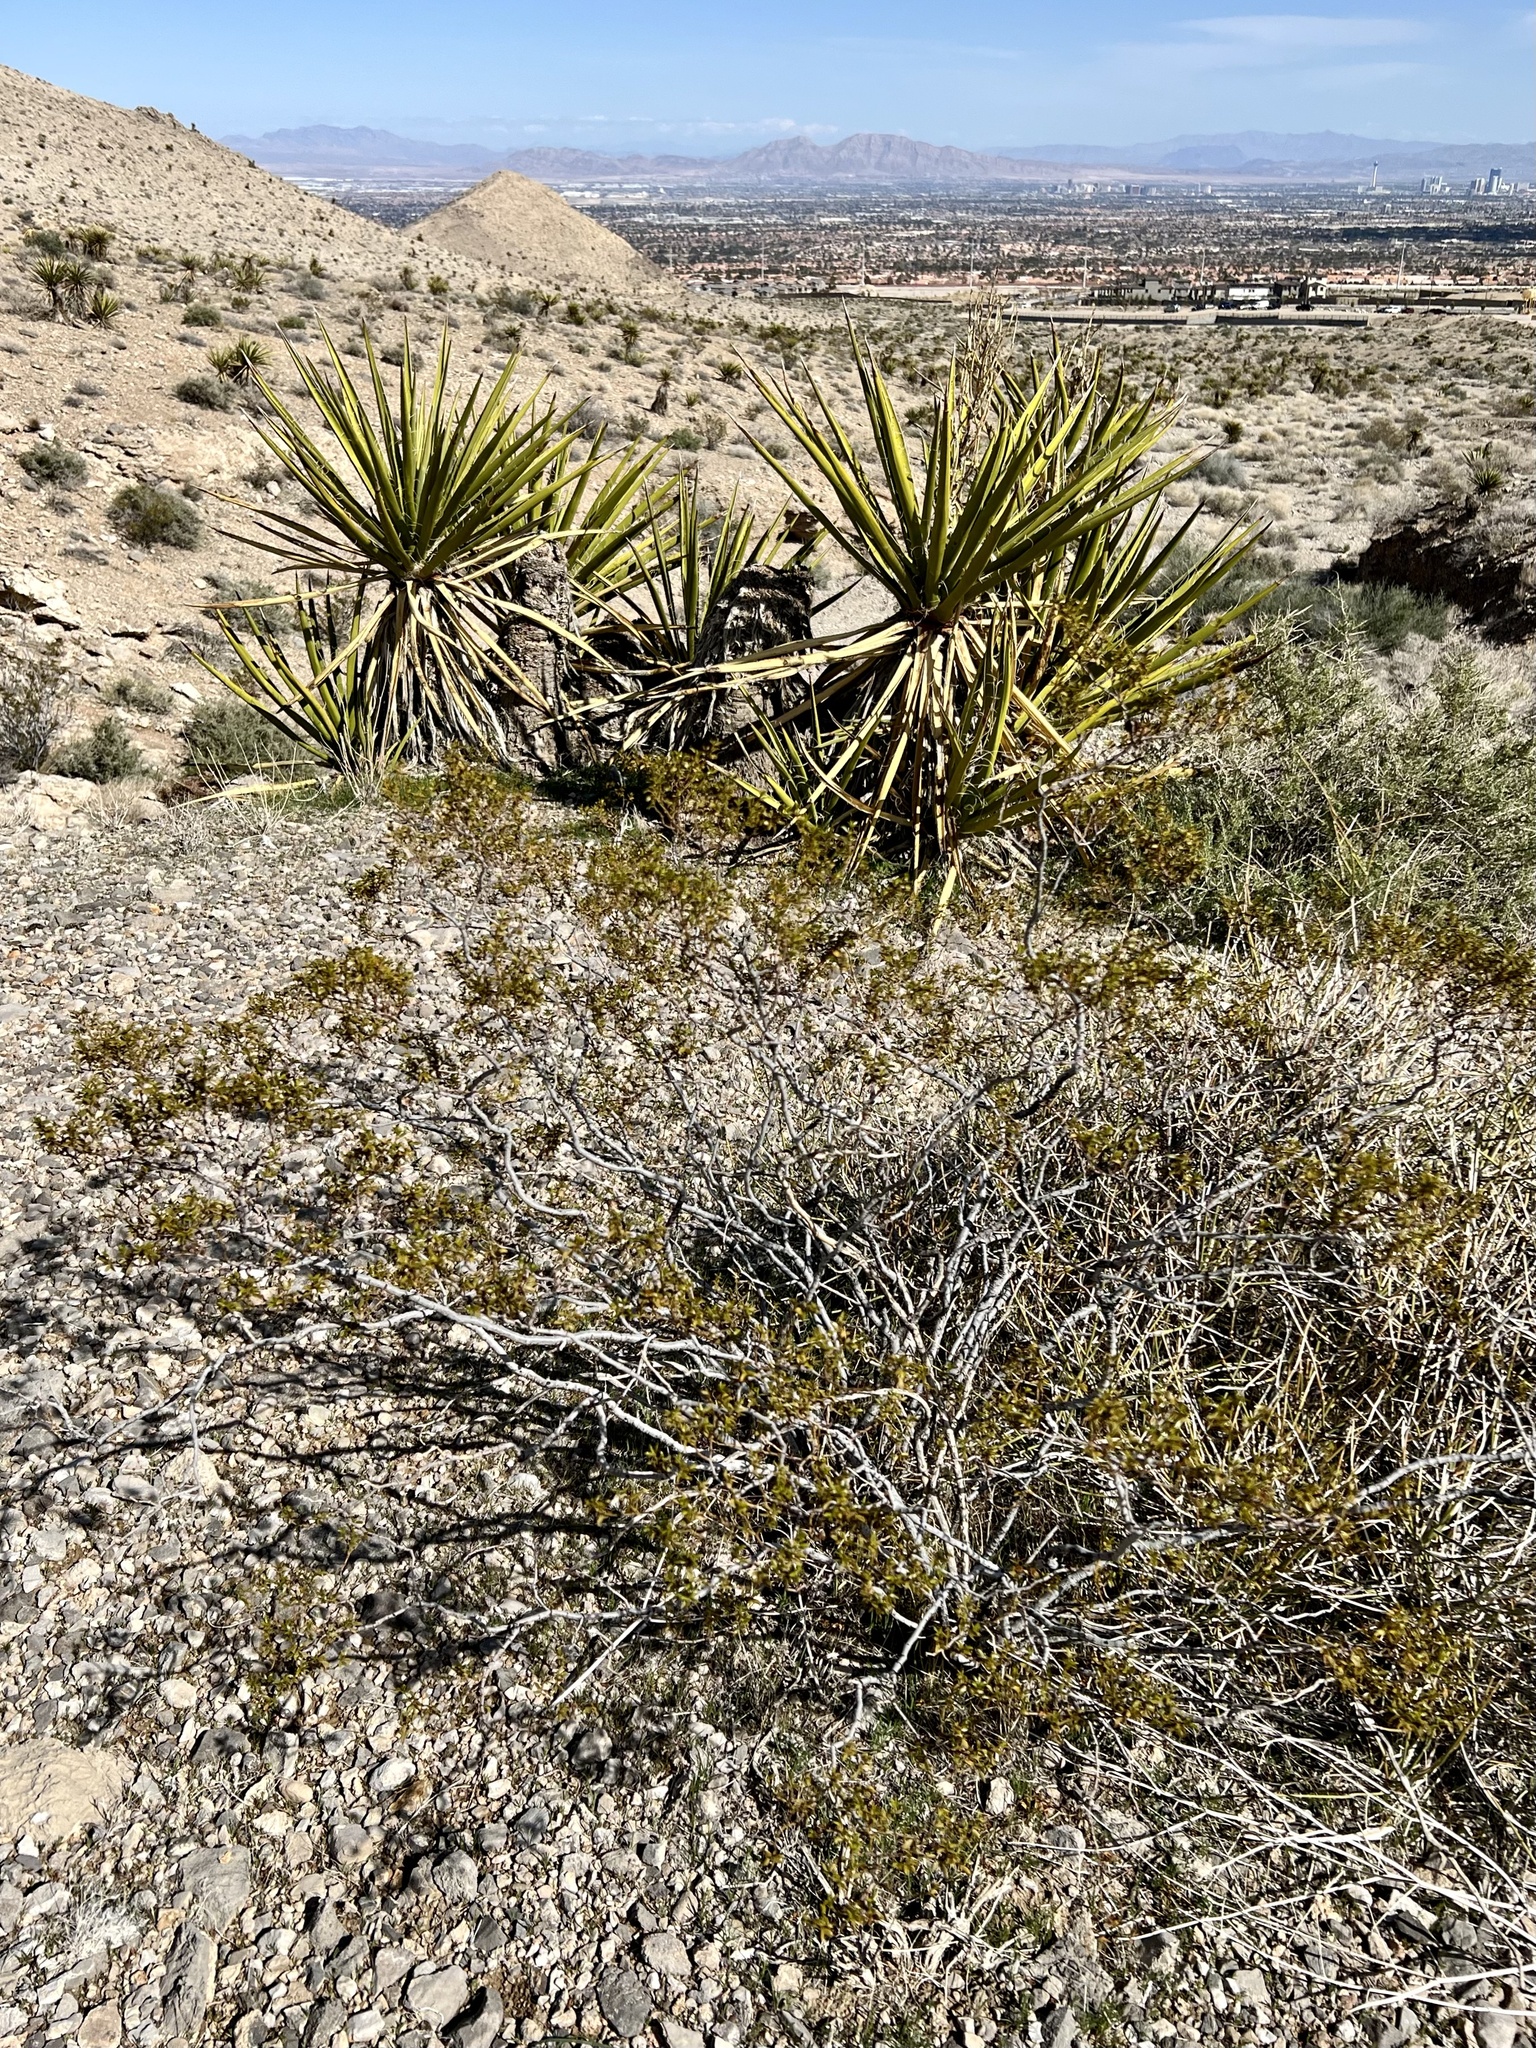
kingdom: Plantae
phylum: Tracheophyta
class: Magnoliopsida
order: Zygophyllales
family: Zygophyllaceae
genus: Larrea
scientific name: Larrea tridentata
